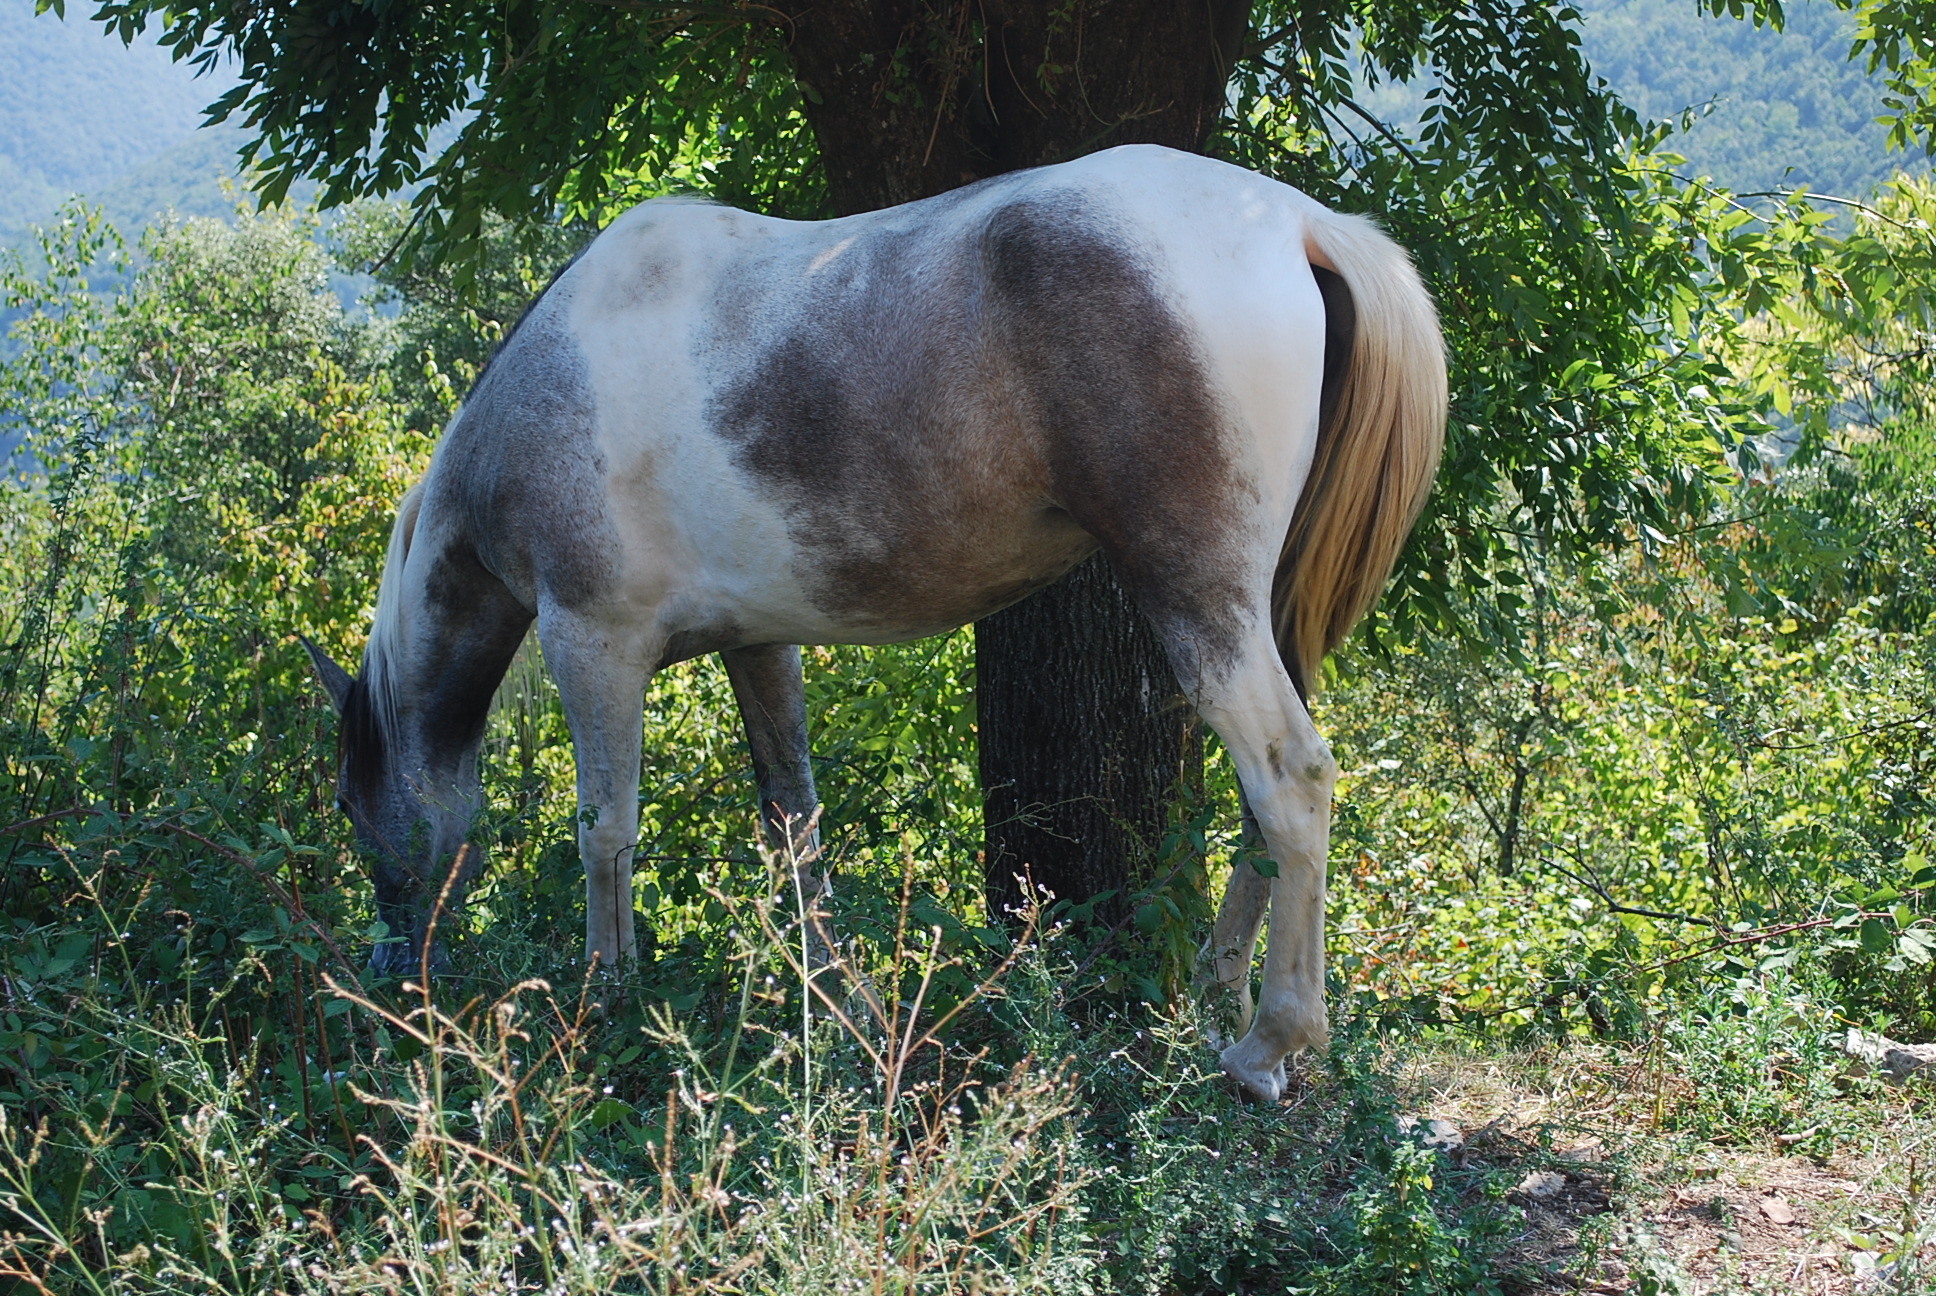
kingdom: Animalia
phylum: Chordata
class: Mammalia
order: Perissodactyla
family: Equidae
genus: Equus
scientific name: Equus caballus
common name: Horse
